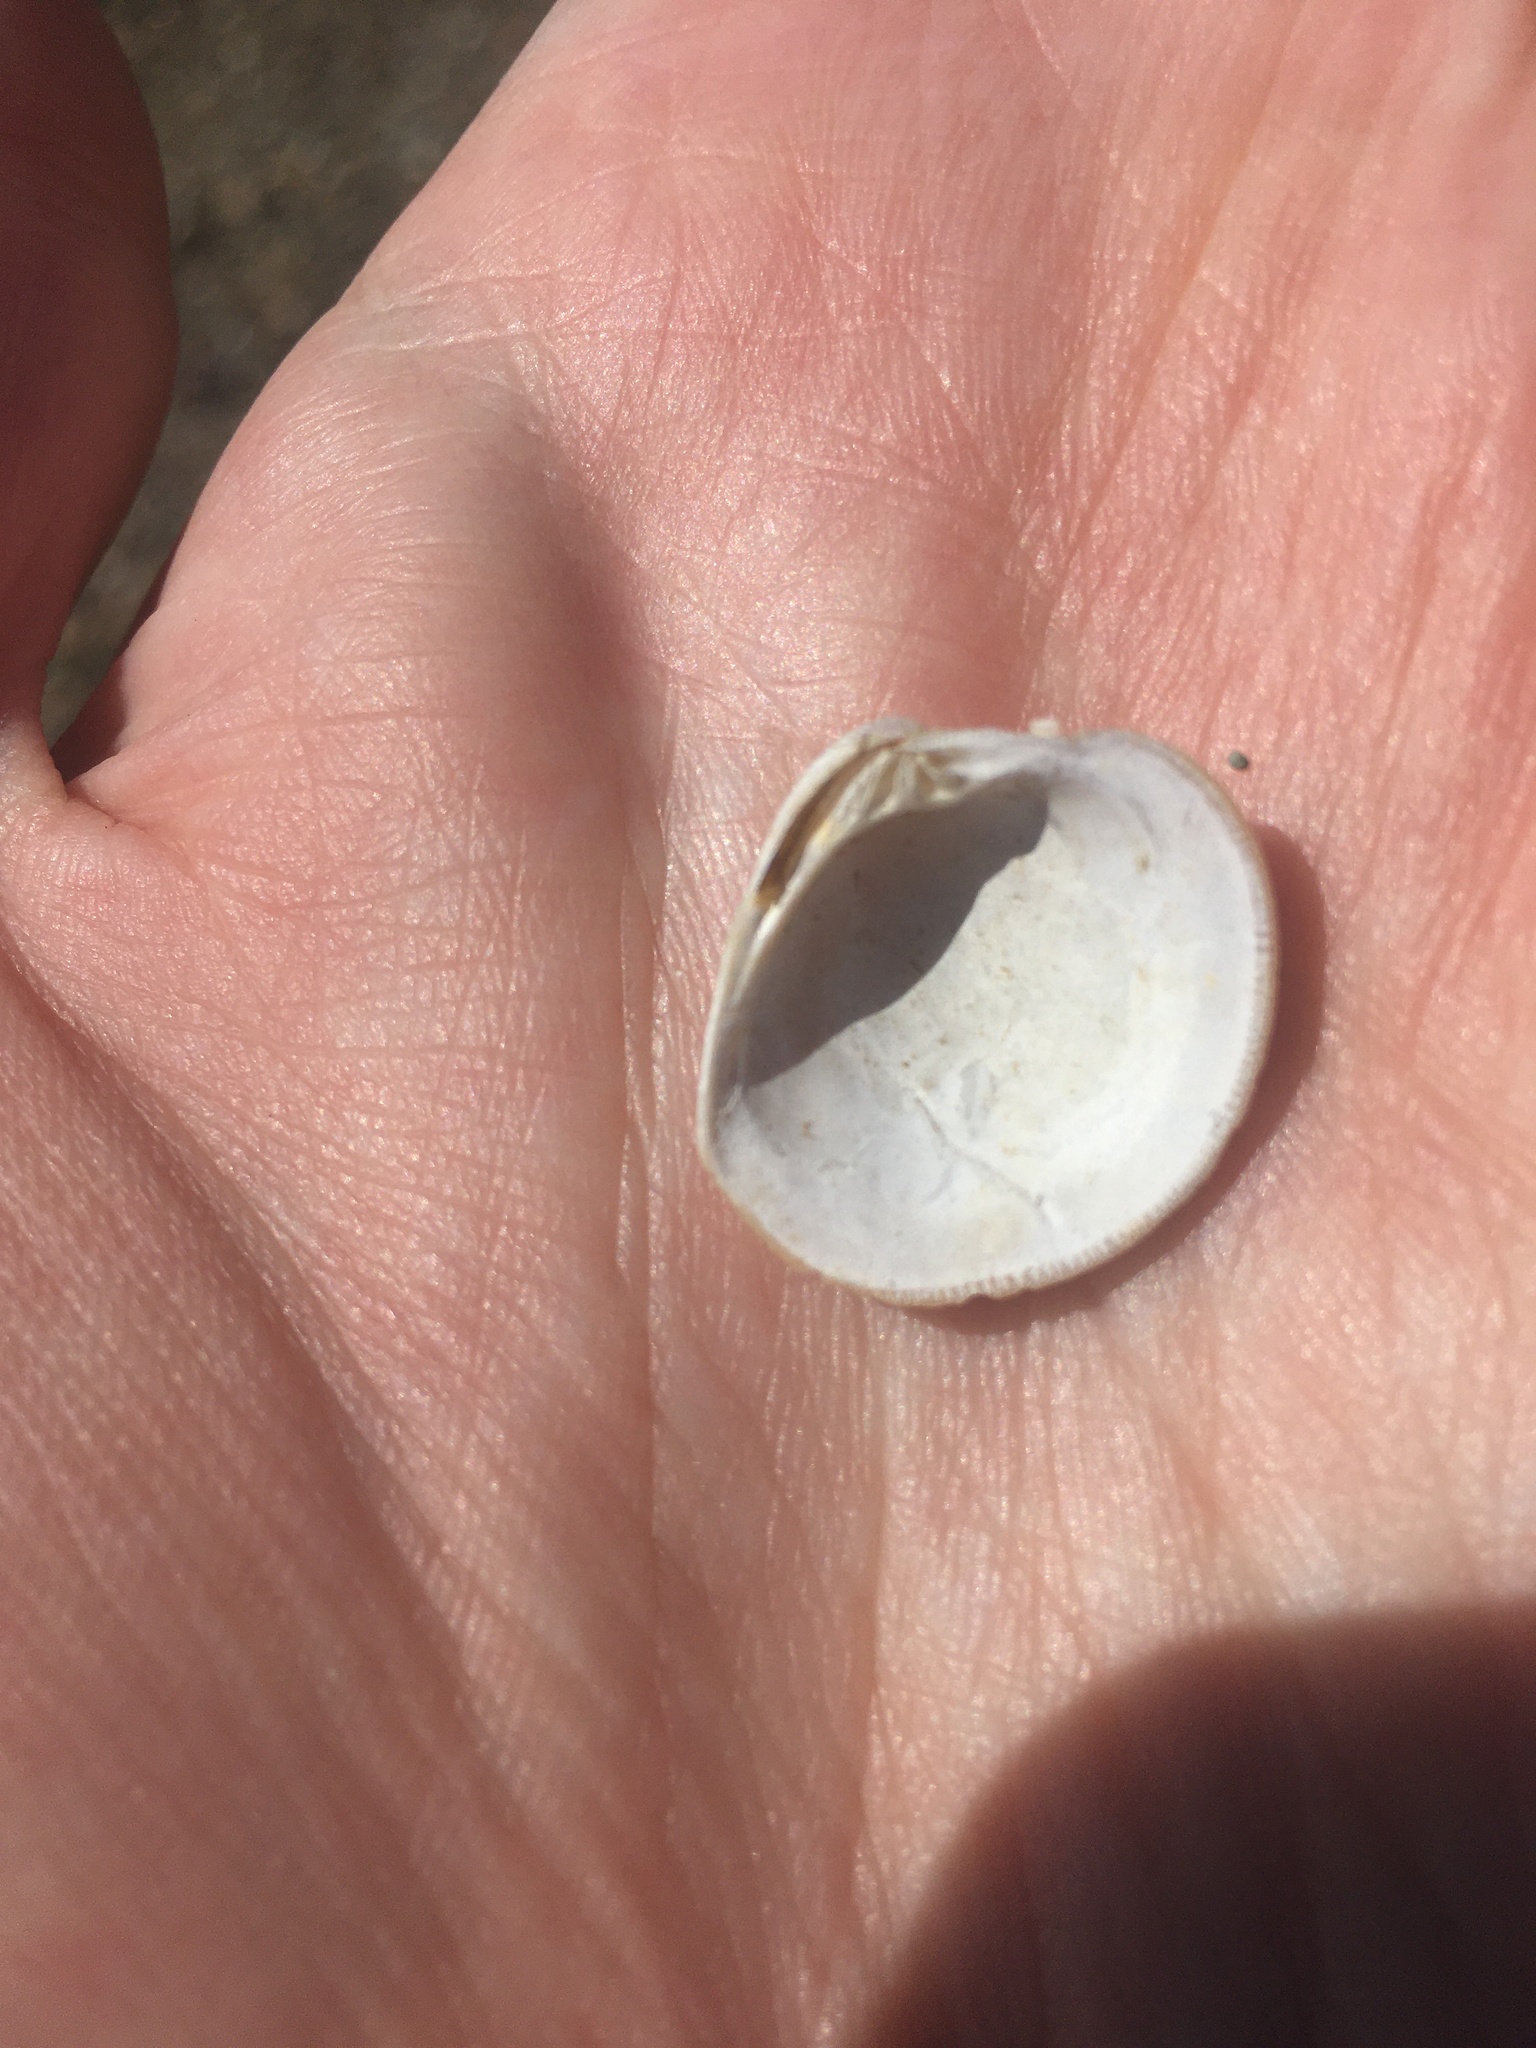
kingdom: Animalia
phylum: Mollusca
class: Bivalvia
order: Venerida
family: Veneridae
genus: Mercenaria
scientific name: Mercenaria mercenaria
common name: American hard-shelled clam
